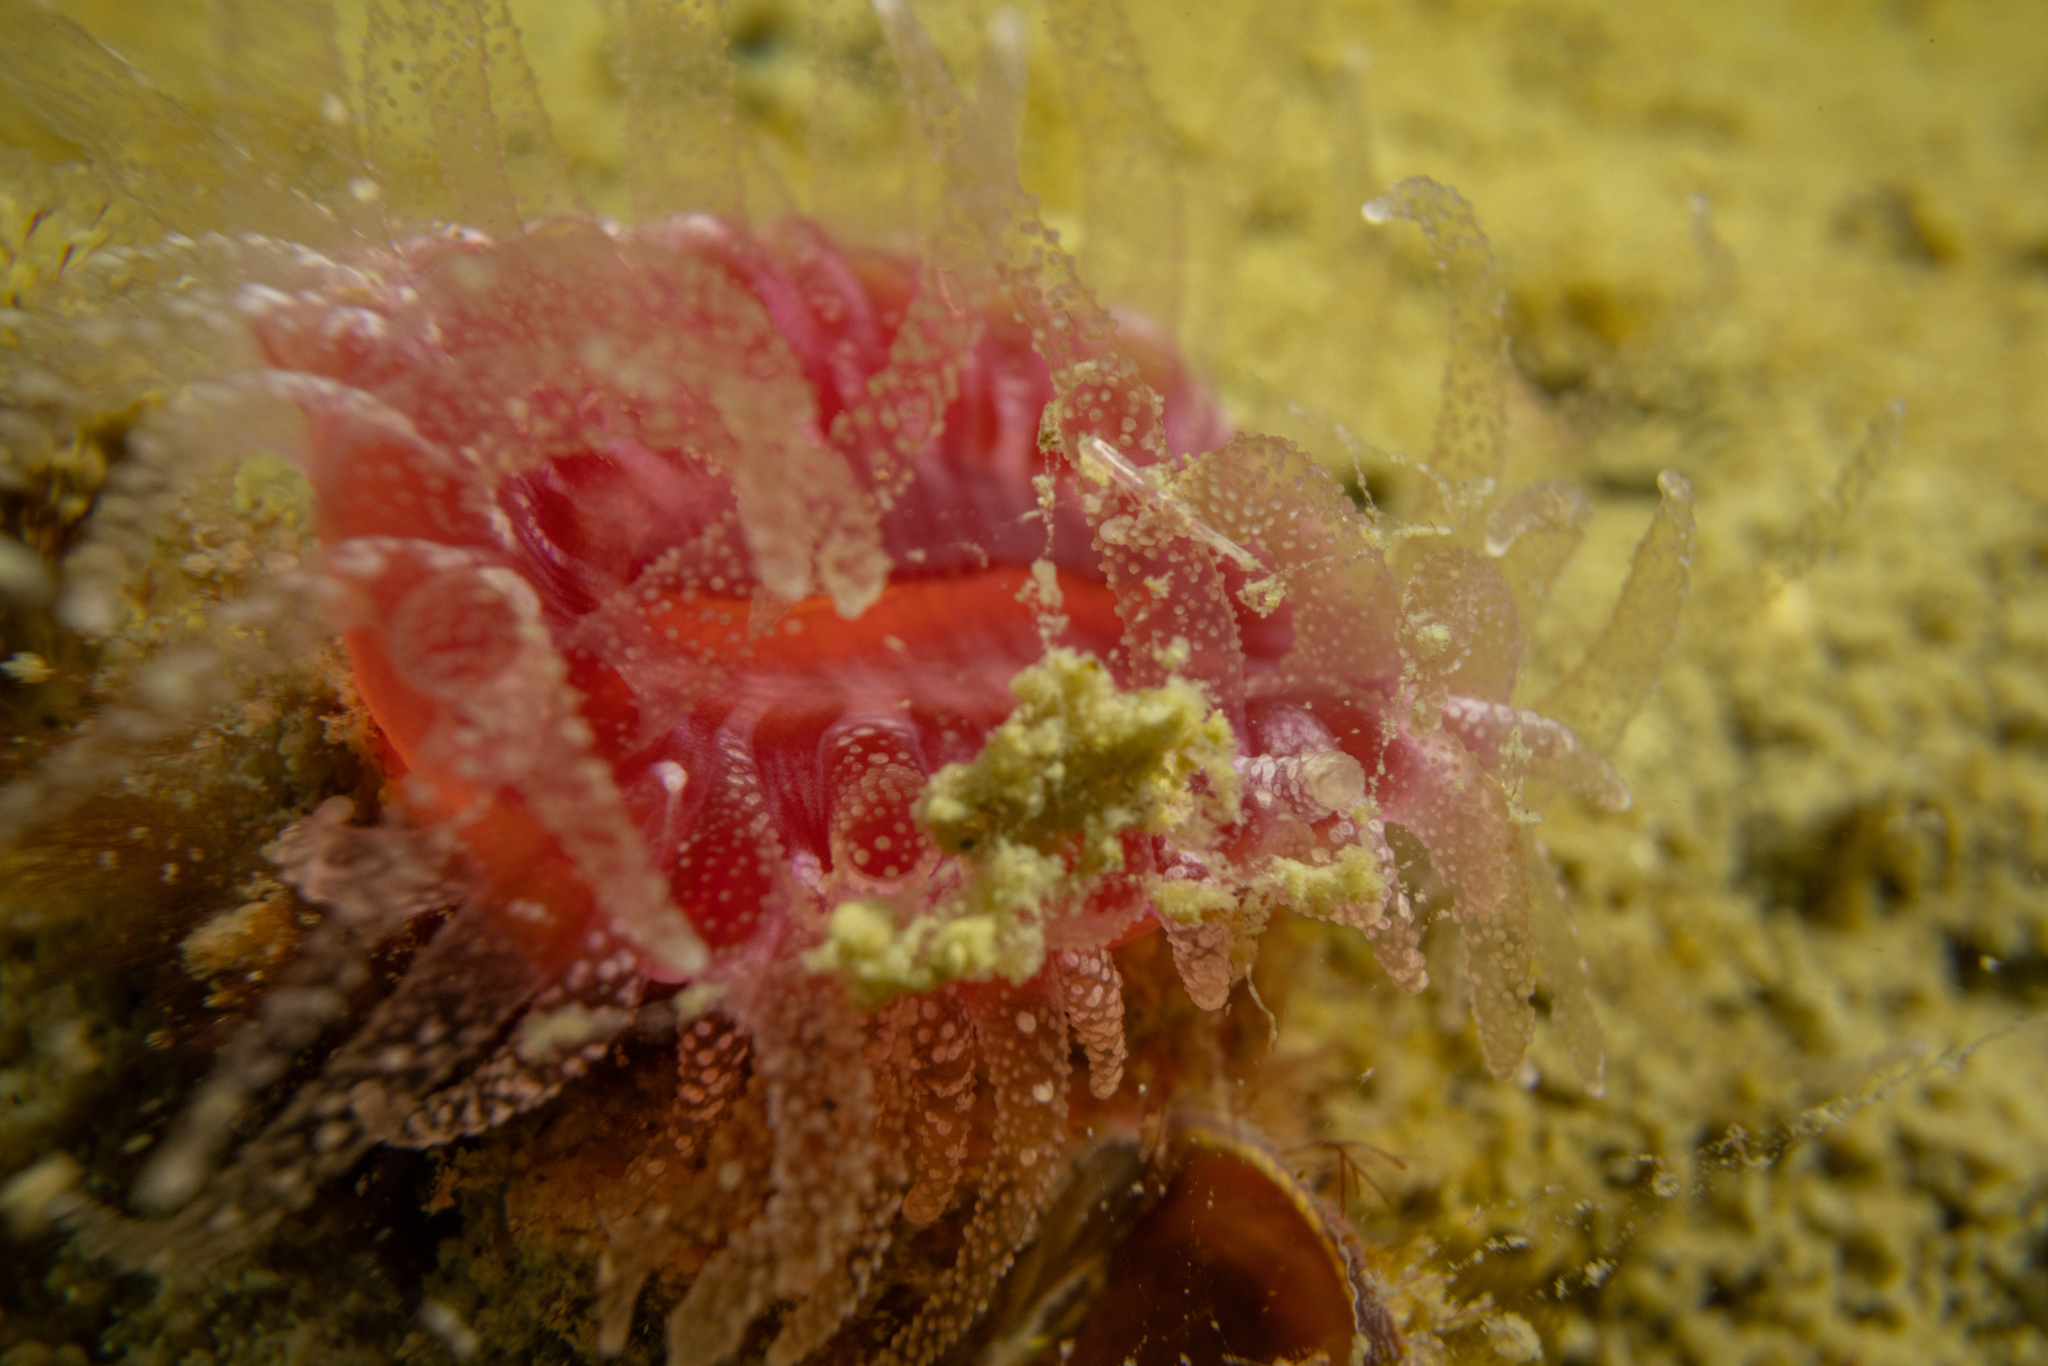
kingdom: Animalia
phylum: Cnidaria
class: Anthozoa
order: Scleractinia
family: Flabellidae
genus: Monomyces
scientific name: Monomyces rubrum
